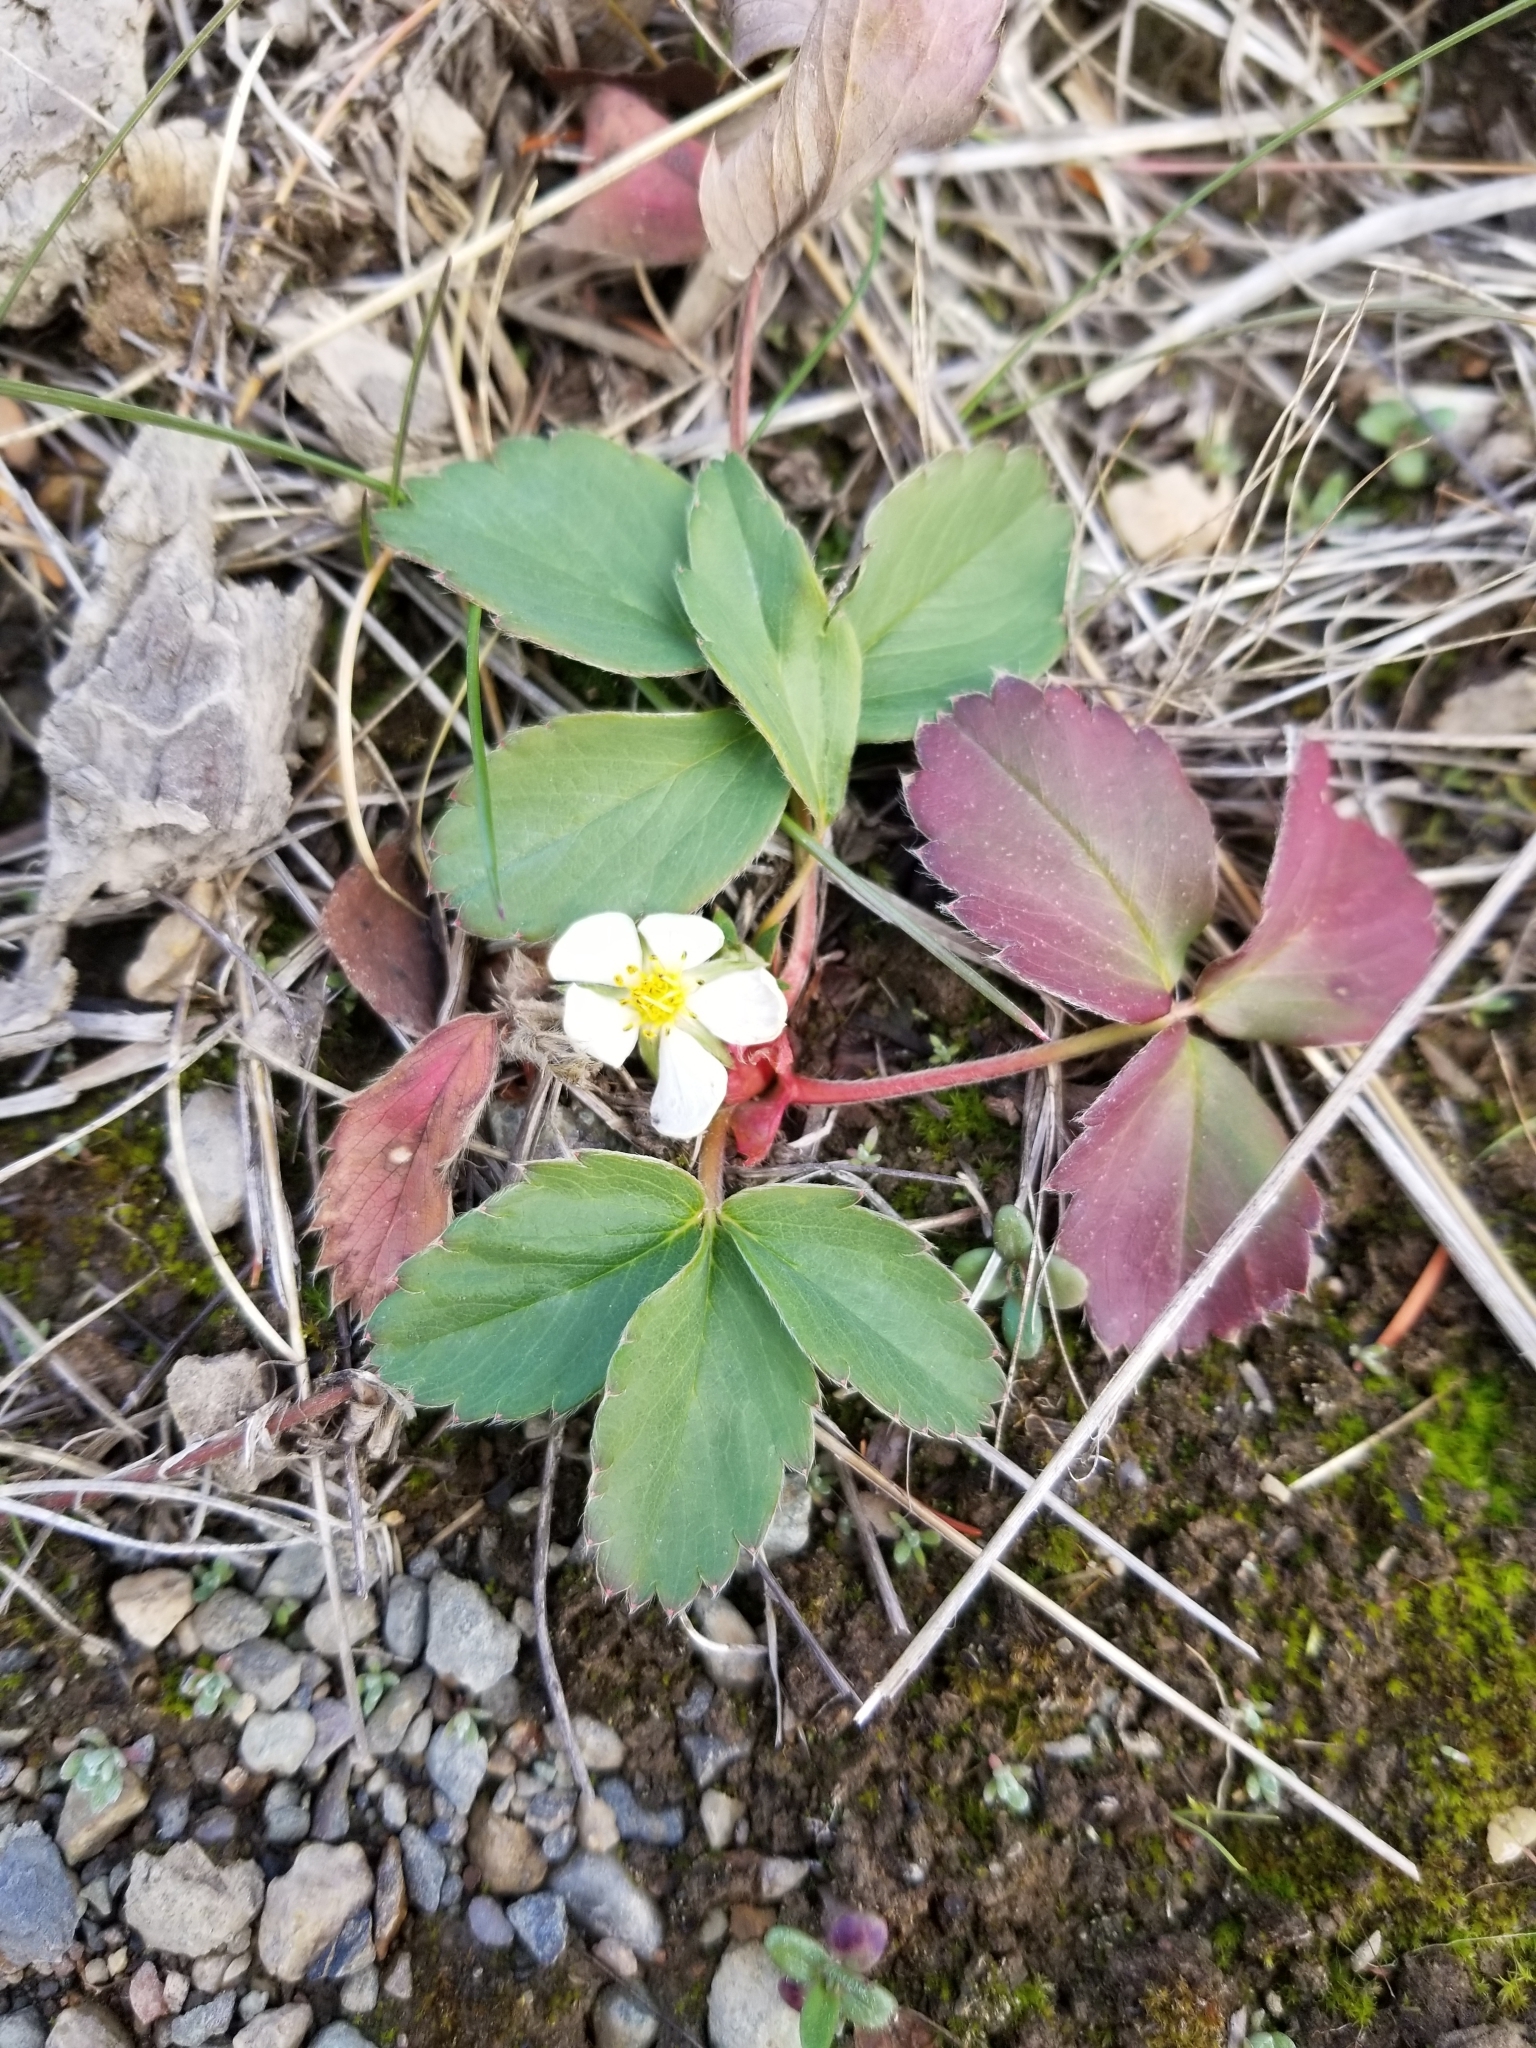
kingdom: Plantae
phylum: Tracheophyta
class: Magnoliopsida
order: Rosales
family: Rosaceae
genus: Fragaria
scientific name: Fragaria virginiana
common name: Thickleaved wild strawberry
